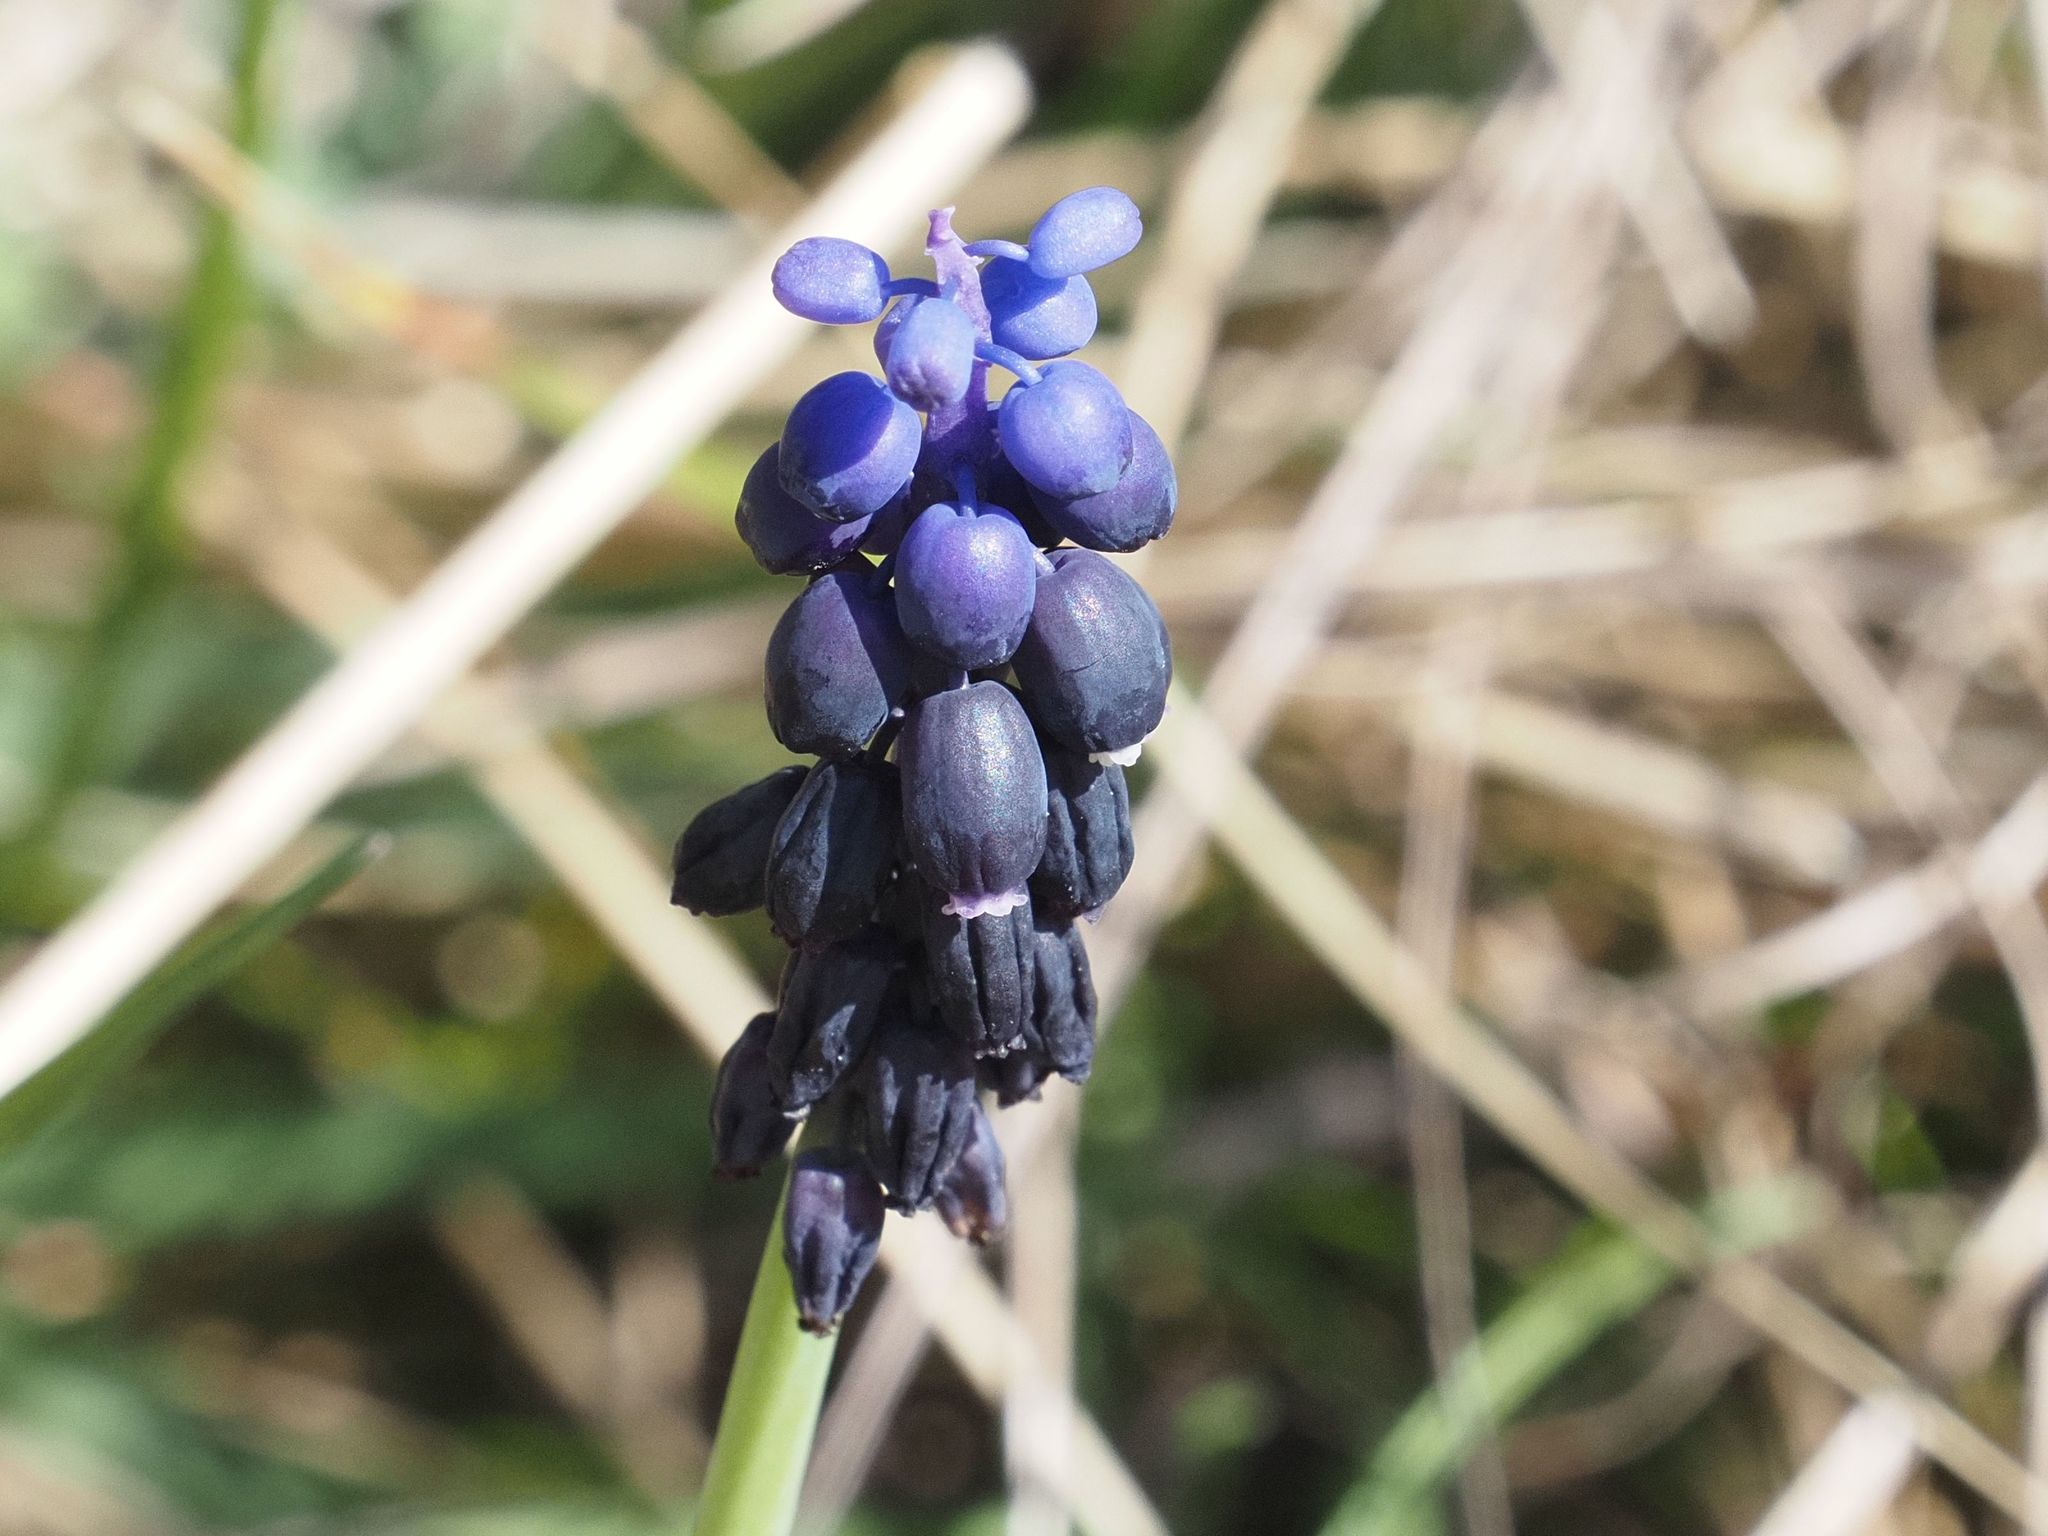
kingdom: Plantae
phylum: Tracheophyta
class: Liliopsida
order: Asparagales
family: Asparagaceae
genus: Muscari
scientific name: Muscari neglectum
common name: Grape-hyacinth
